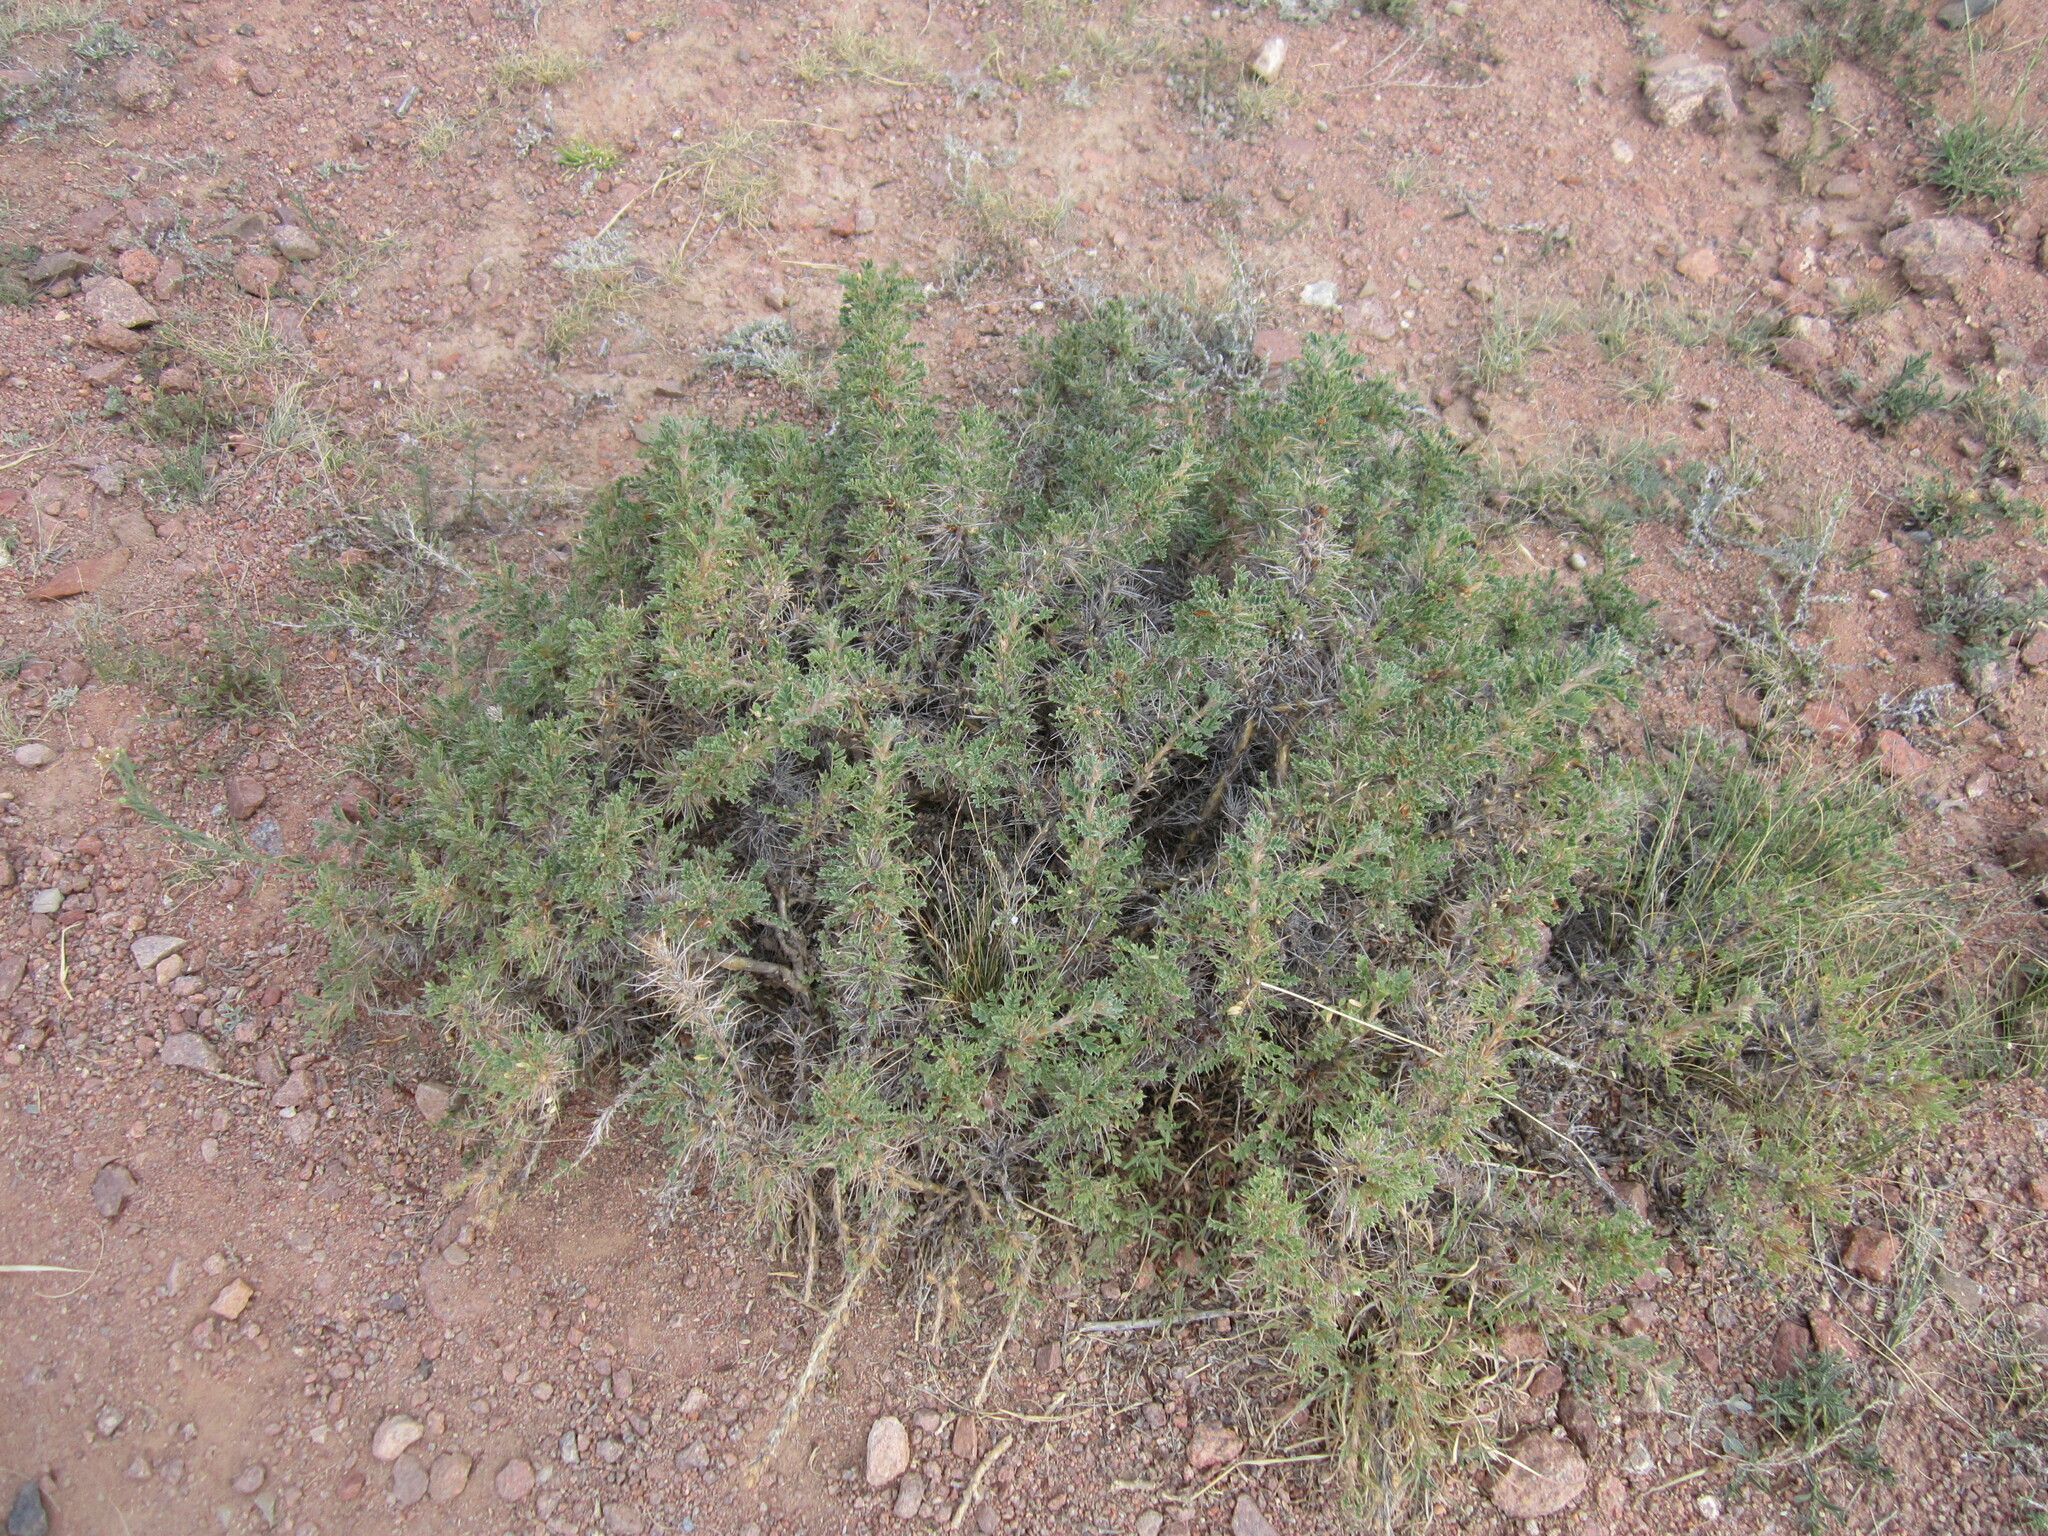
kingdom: Plantae
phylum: Tracheophyta
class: Magnoliopsida
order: Fabales
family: Fabaceae
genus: Caragana
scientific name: Caragana jubata
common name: Shag-spine peashrub
